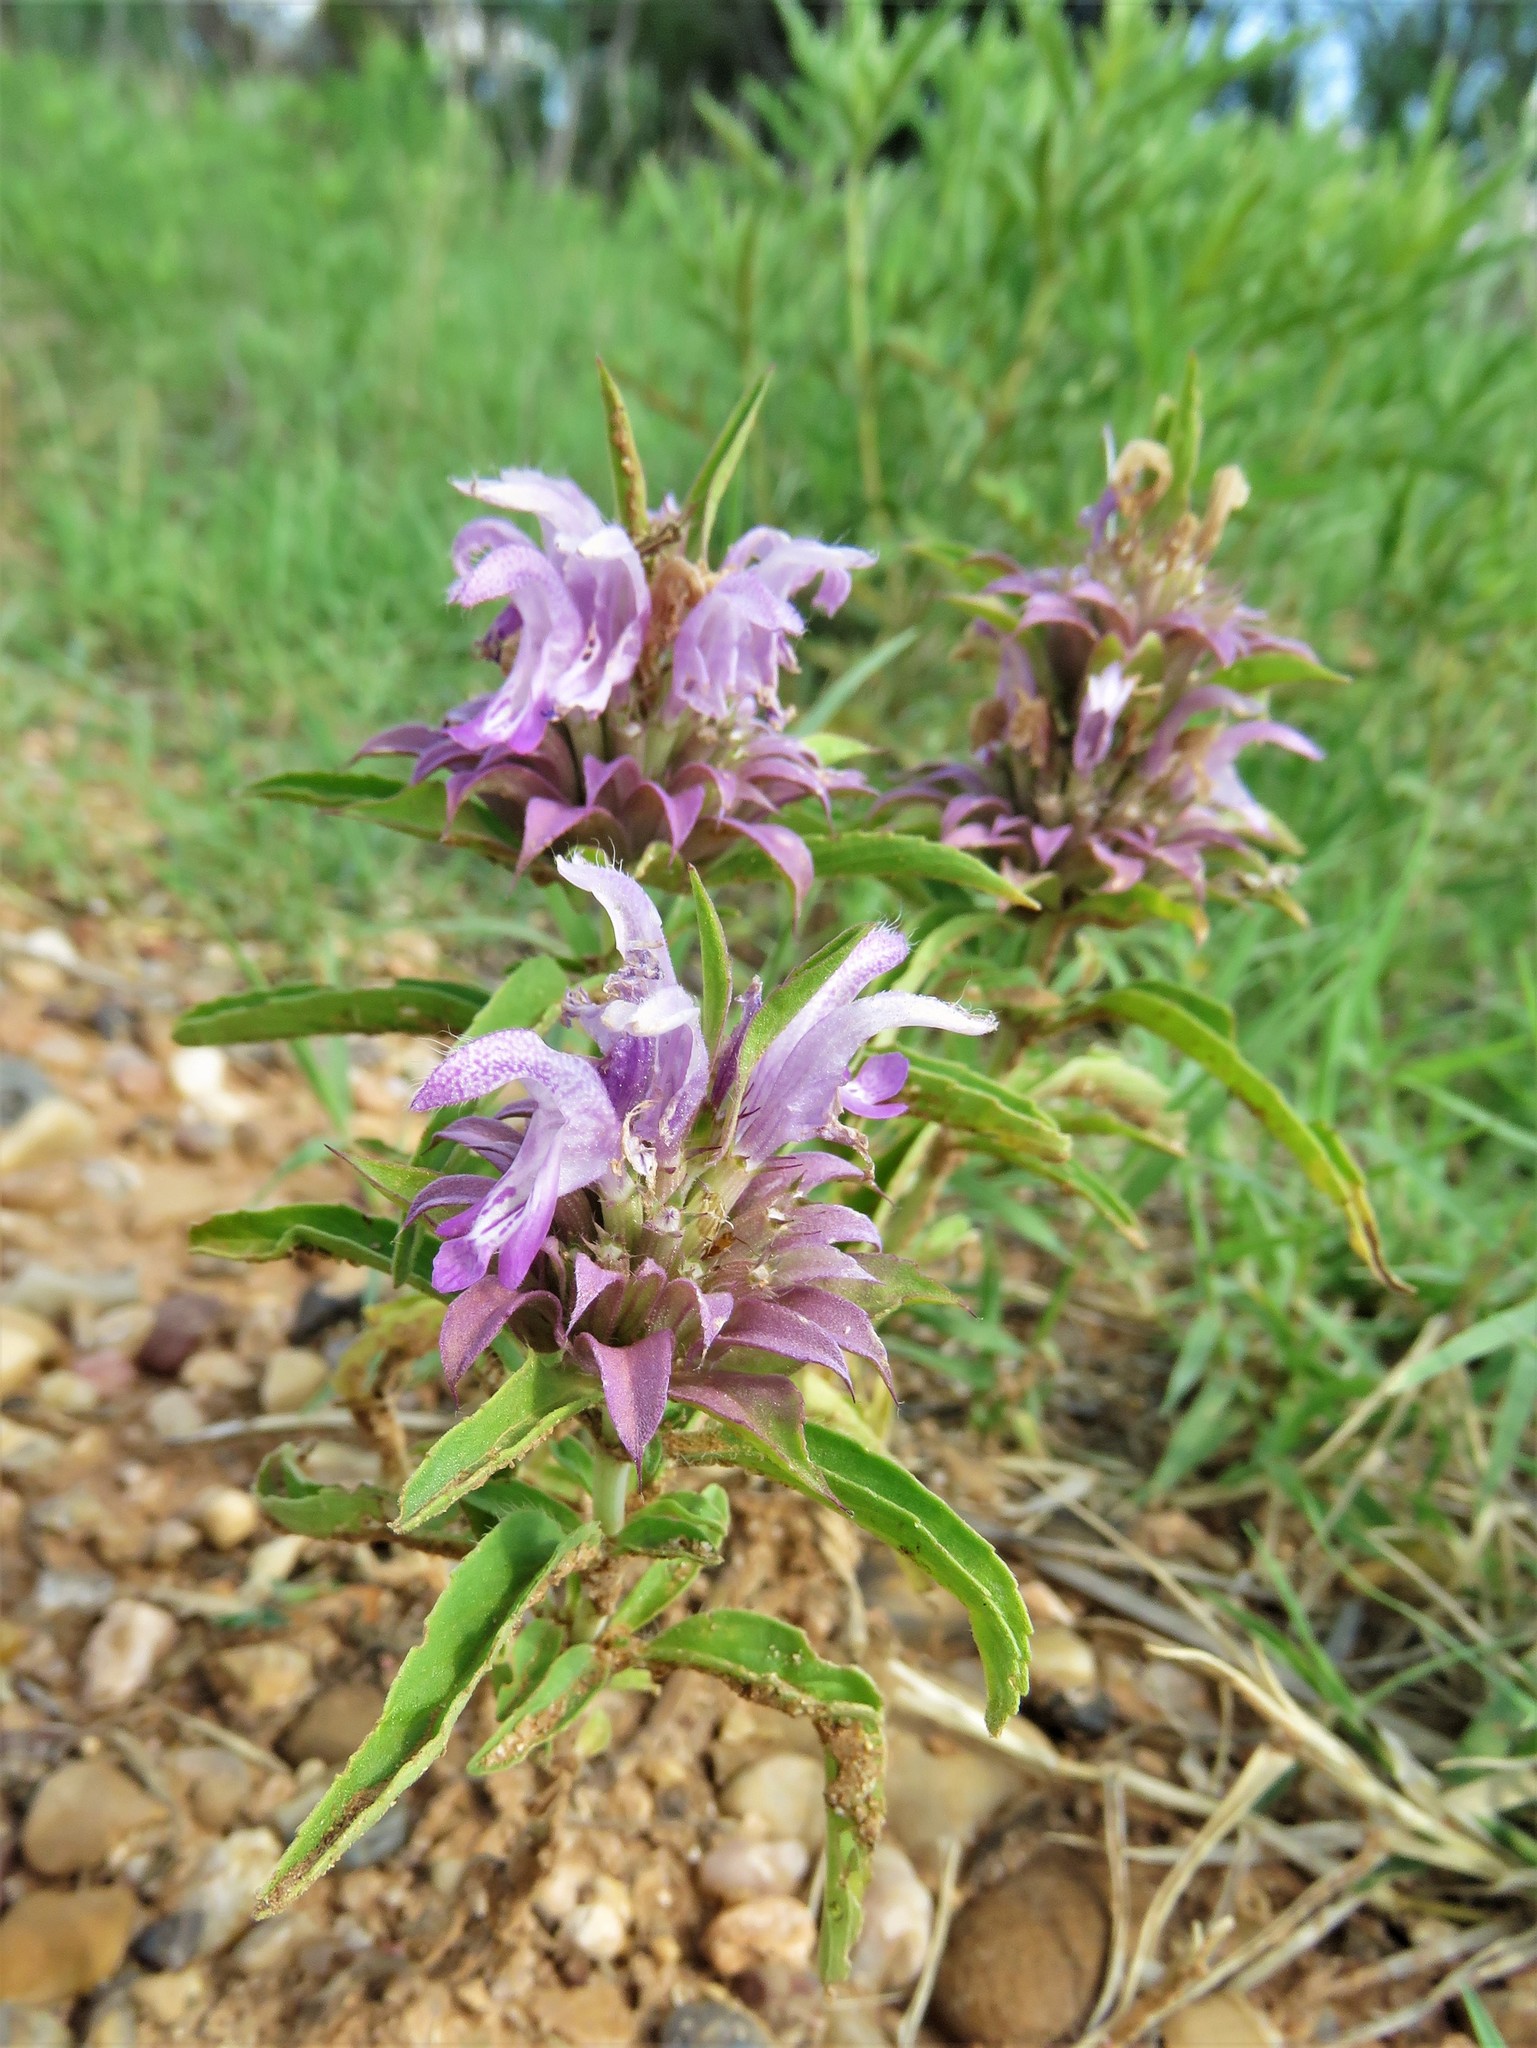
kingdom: Plantae
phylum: Tracheophyta
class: Magnoliopsida
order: Lamiales
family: Lamiaceae
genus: Monarda
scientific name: Monarda citriodora
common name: Lemon beebalm
